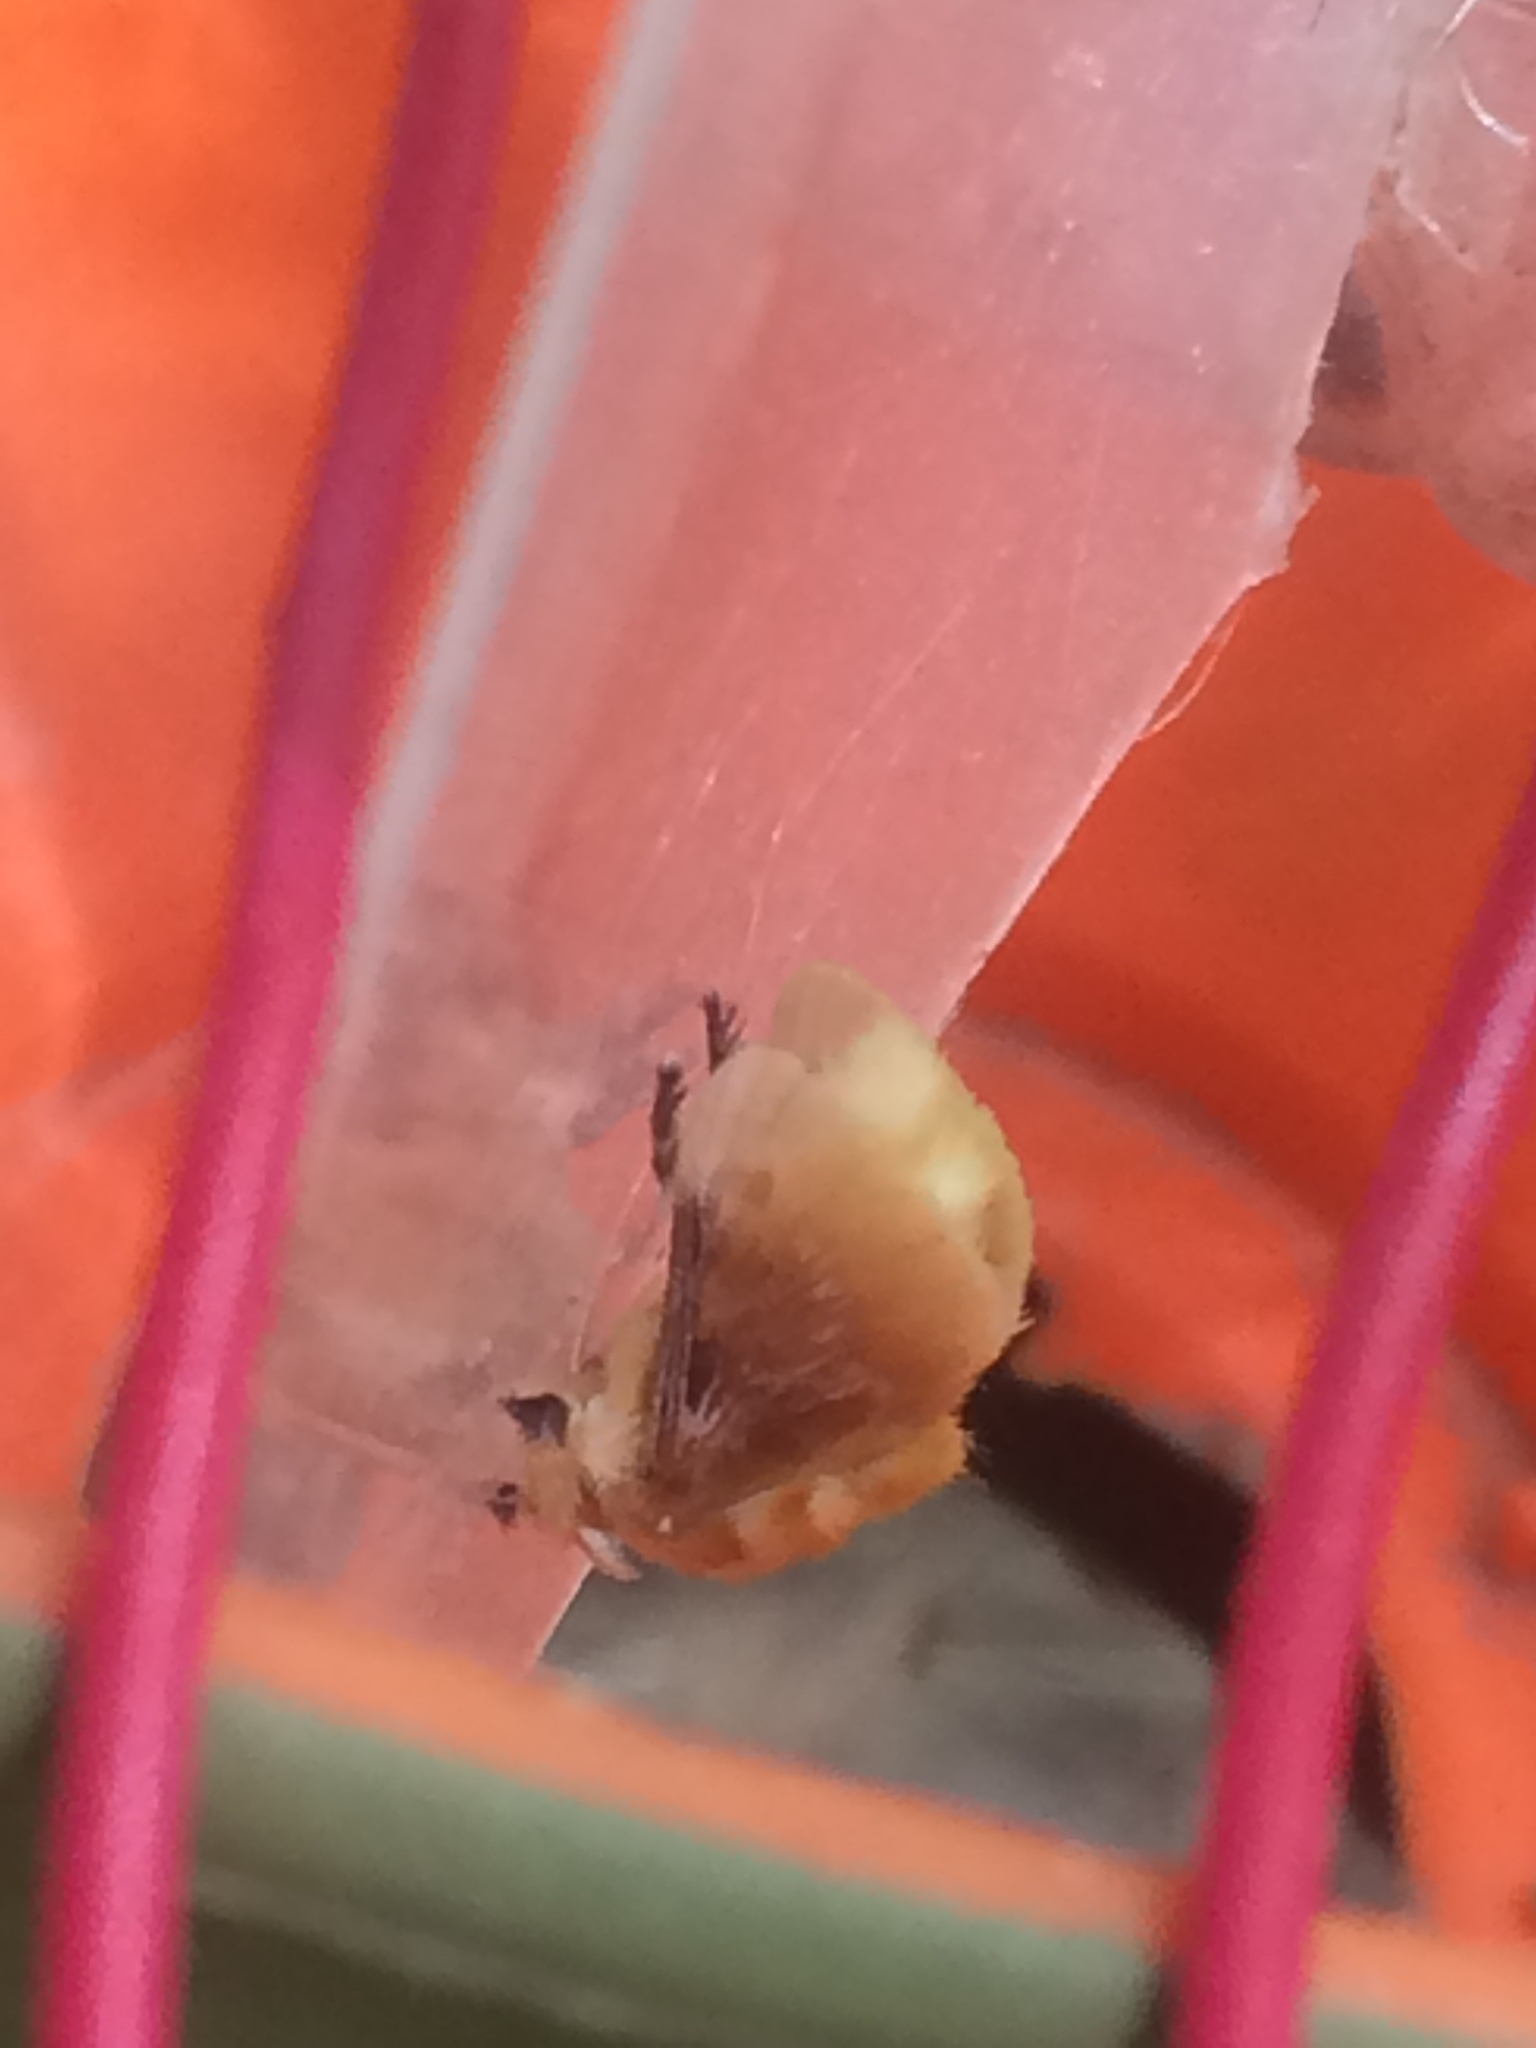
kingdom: Animalia
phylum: Arthropoda
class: Insecta
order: Lepidoptera
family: Megalopygidae
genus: Megalopyge
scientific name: Megalopyge opercularis
